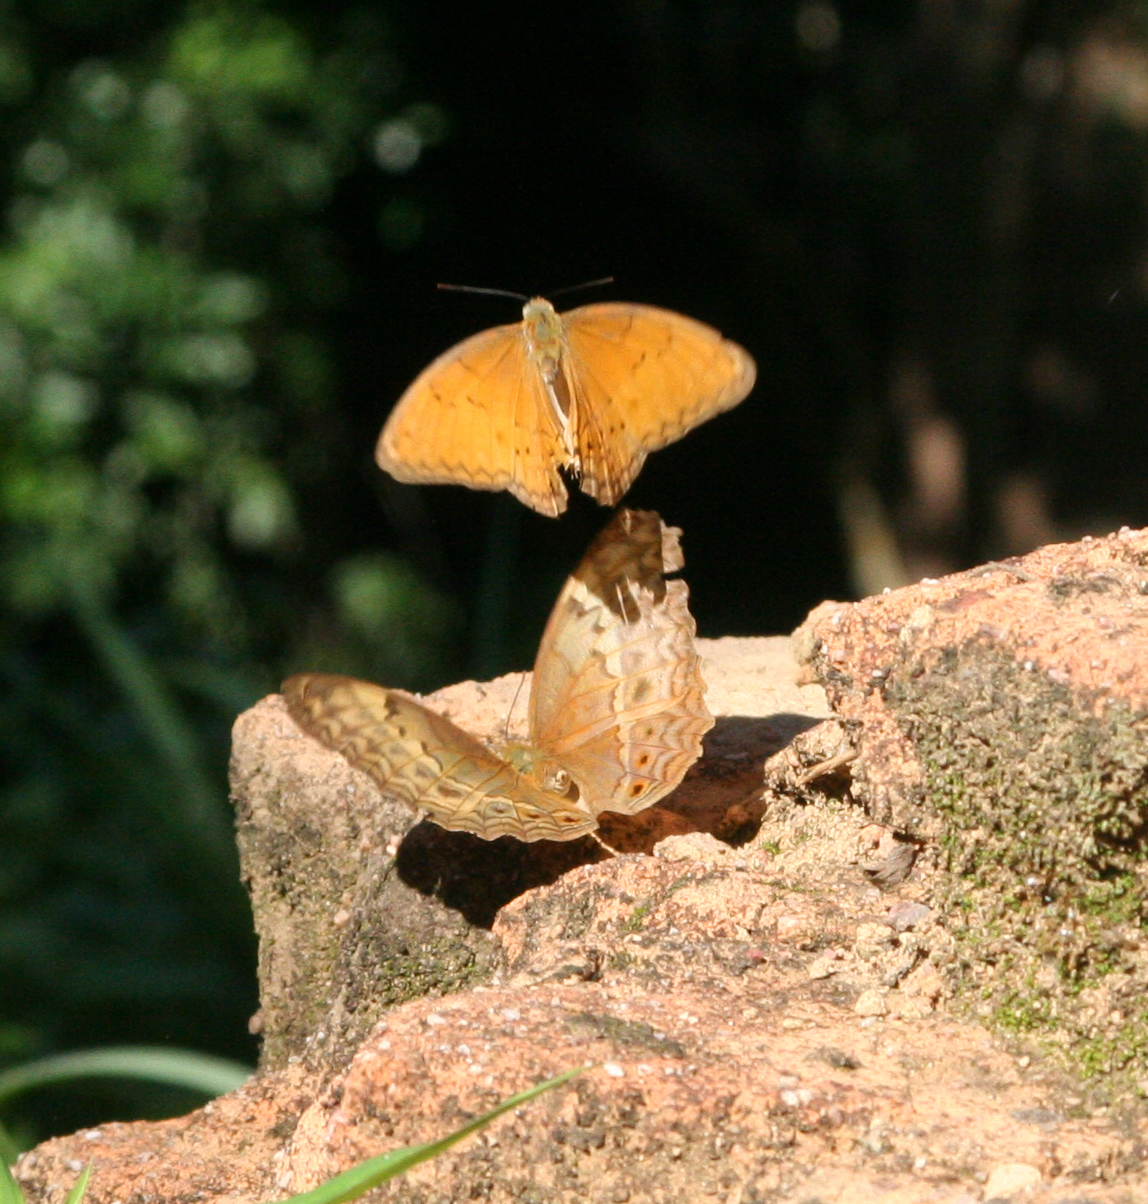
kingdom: Animalia
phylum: Arthropoda
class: Insecta
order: Lepidoptera
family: Nymphalidae
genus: Cirrochroa
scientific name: Cirrochroa tyche
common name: Common yeoman
